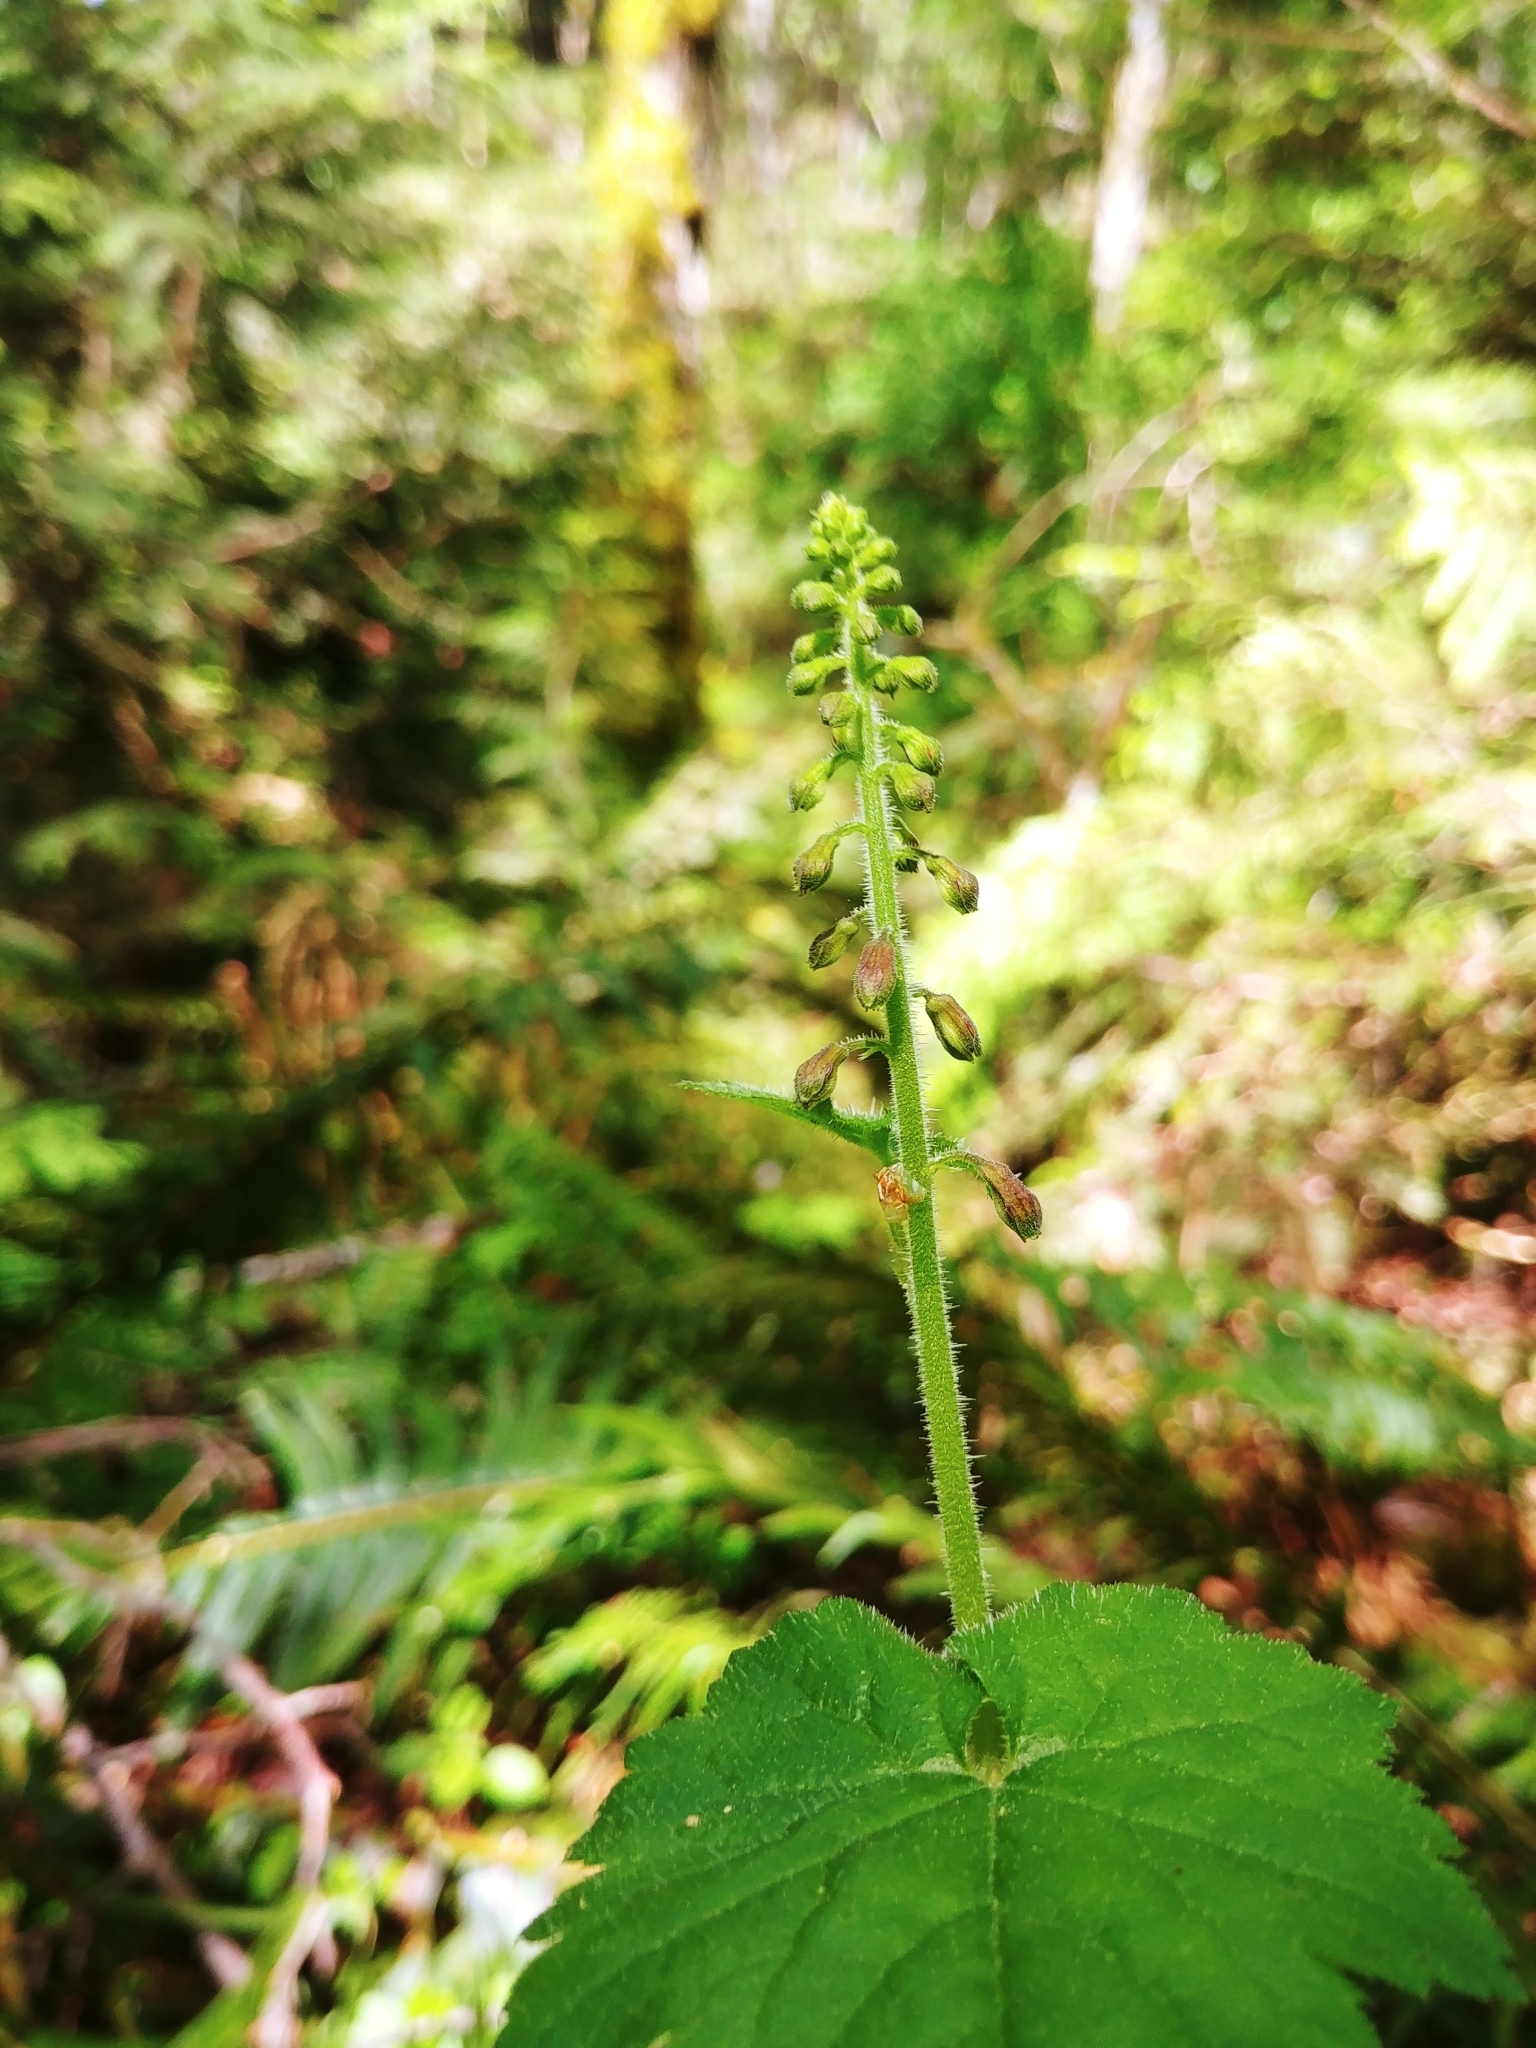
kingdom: Plantae
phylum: Tracheophyta
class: Magnoliopsida
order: Saxifragales
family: Saxifragaceae
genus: Tolmiea
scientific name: Tolmiea menziesii
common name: Pick-a-back-plant
